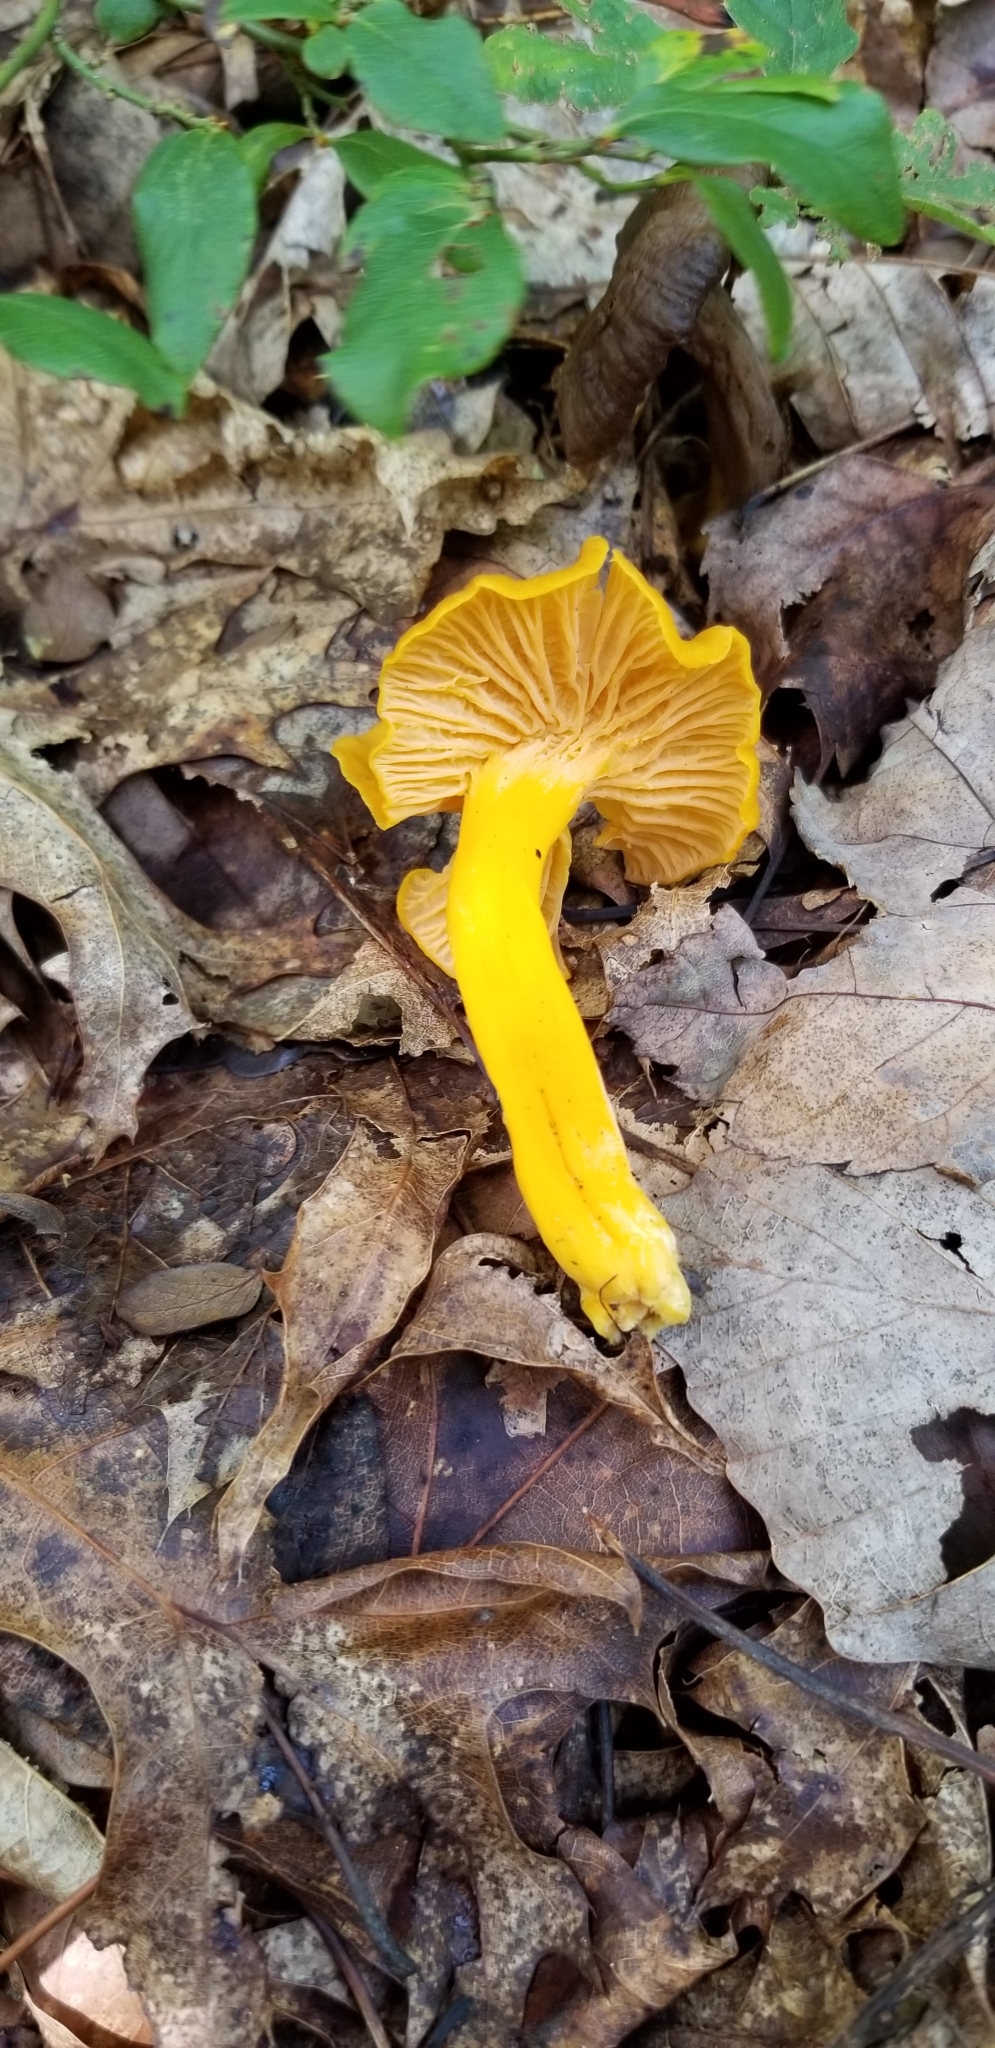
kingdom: Fungi
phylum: Basidiomycota
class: Agaricomycetes
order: Cantharellales
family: Hydnaceae
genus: Cantharellus
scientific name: Cantharellus minor
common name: Small chanterelle
